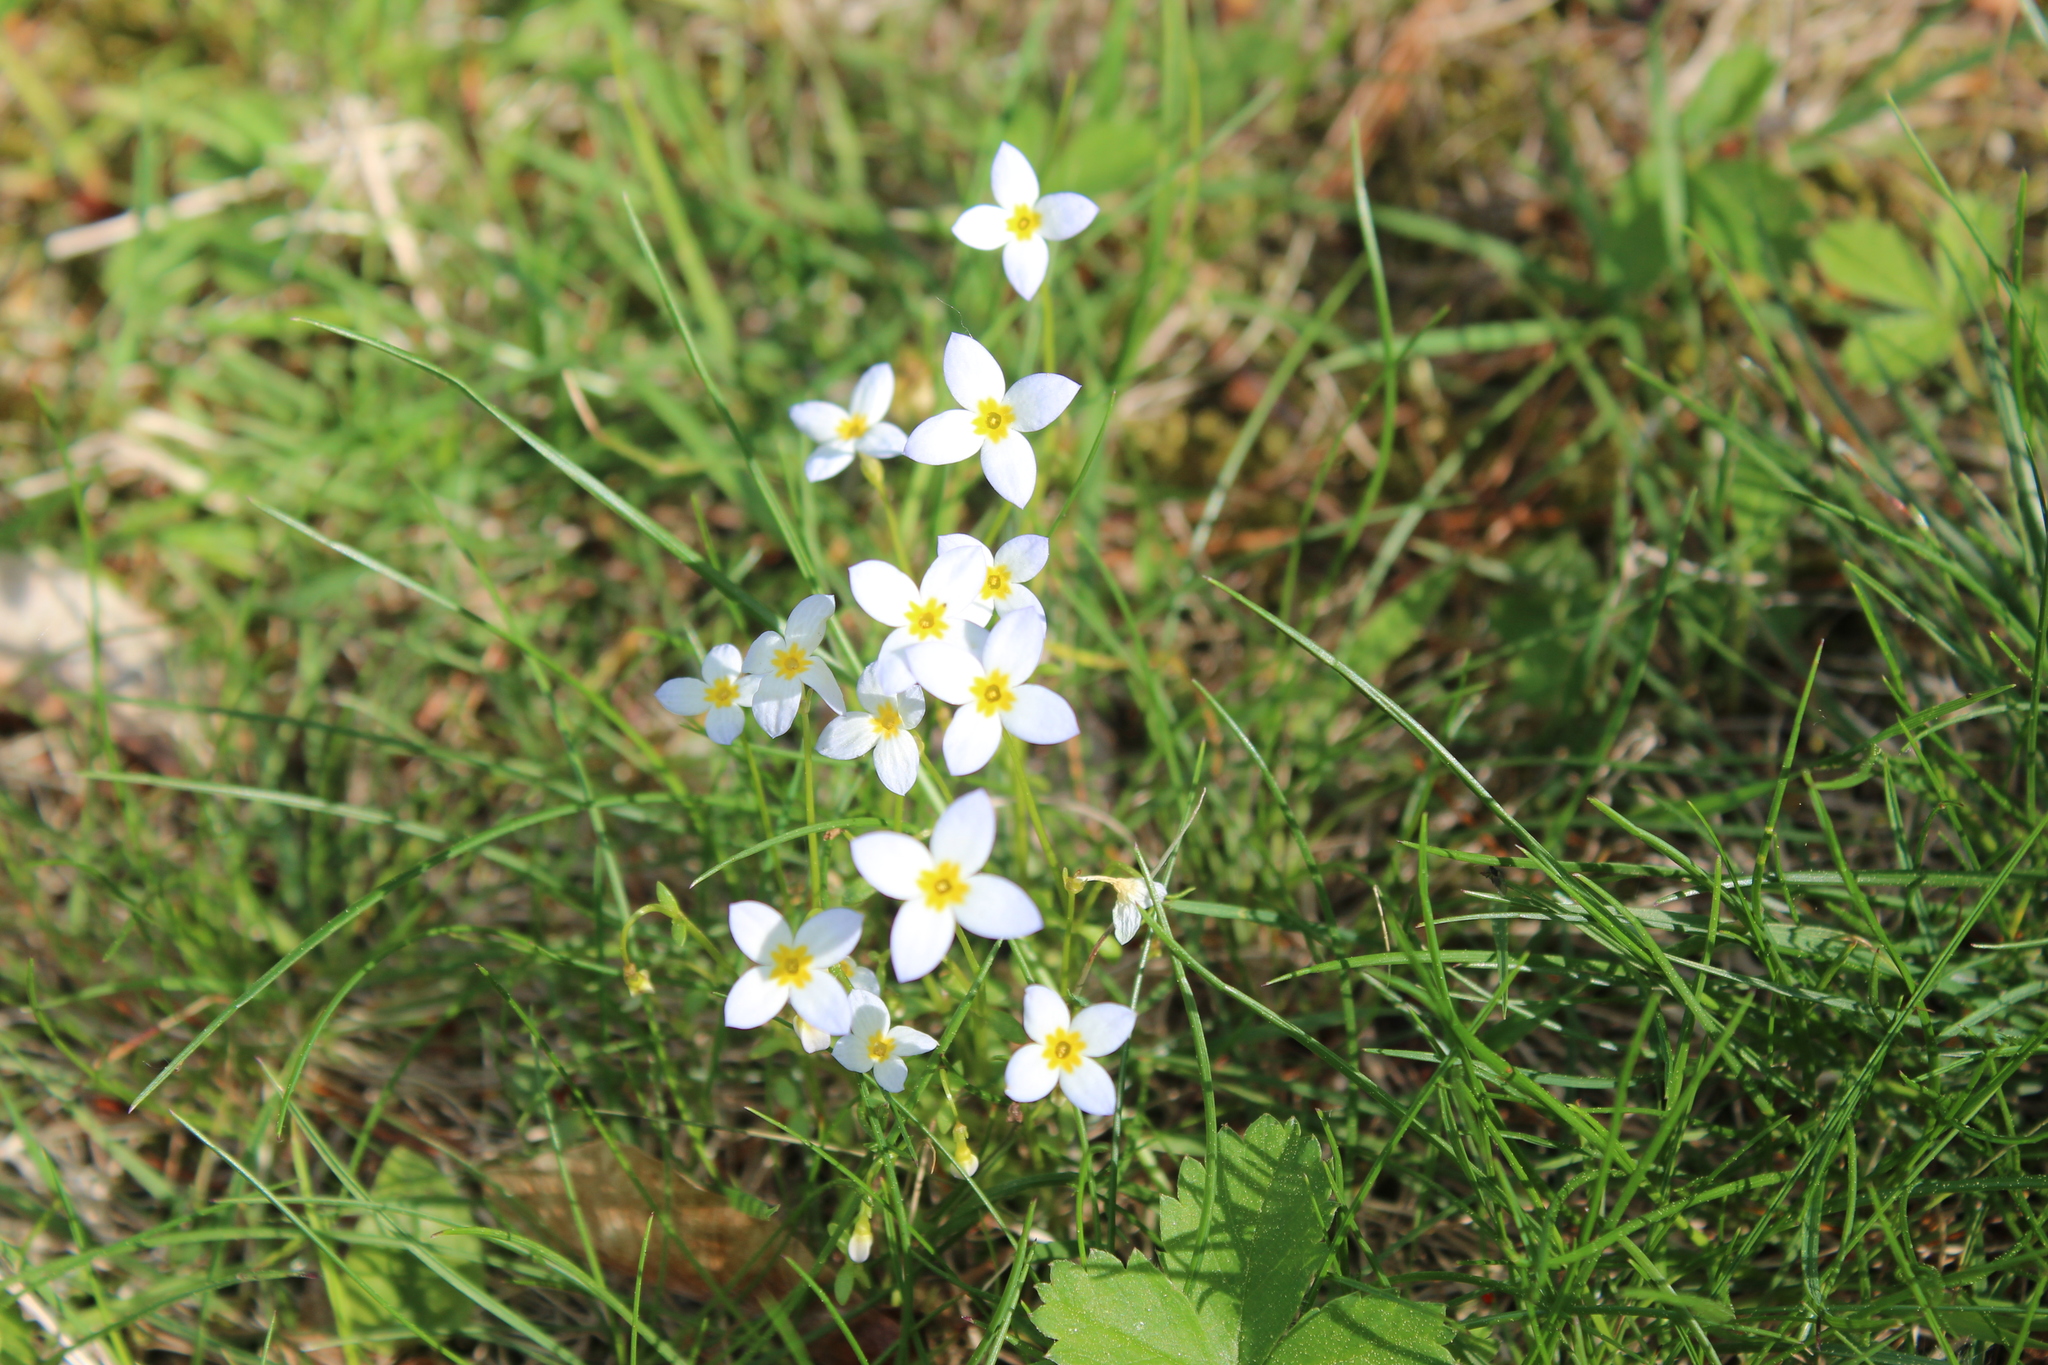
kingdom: Plantae
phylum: Tracheophyta
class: Magnoliopsida
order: Gentianales
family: Rubiaceae
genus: Houstonia
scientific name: Houstonia caerulea
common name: Bluets
